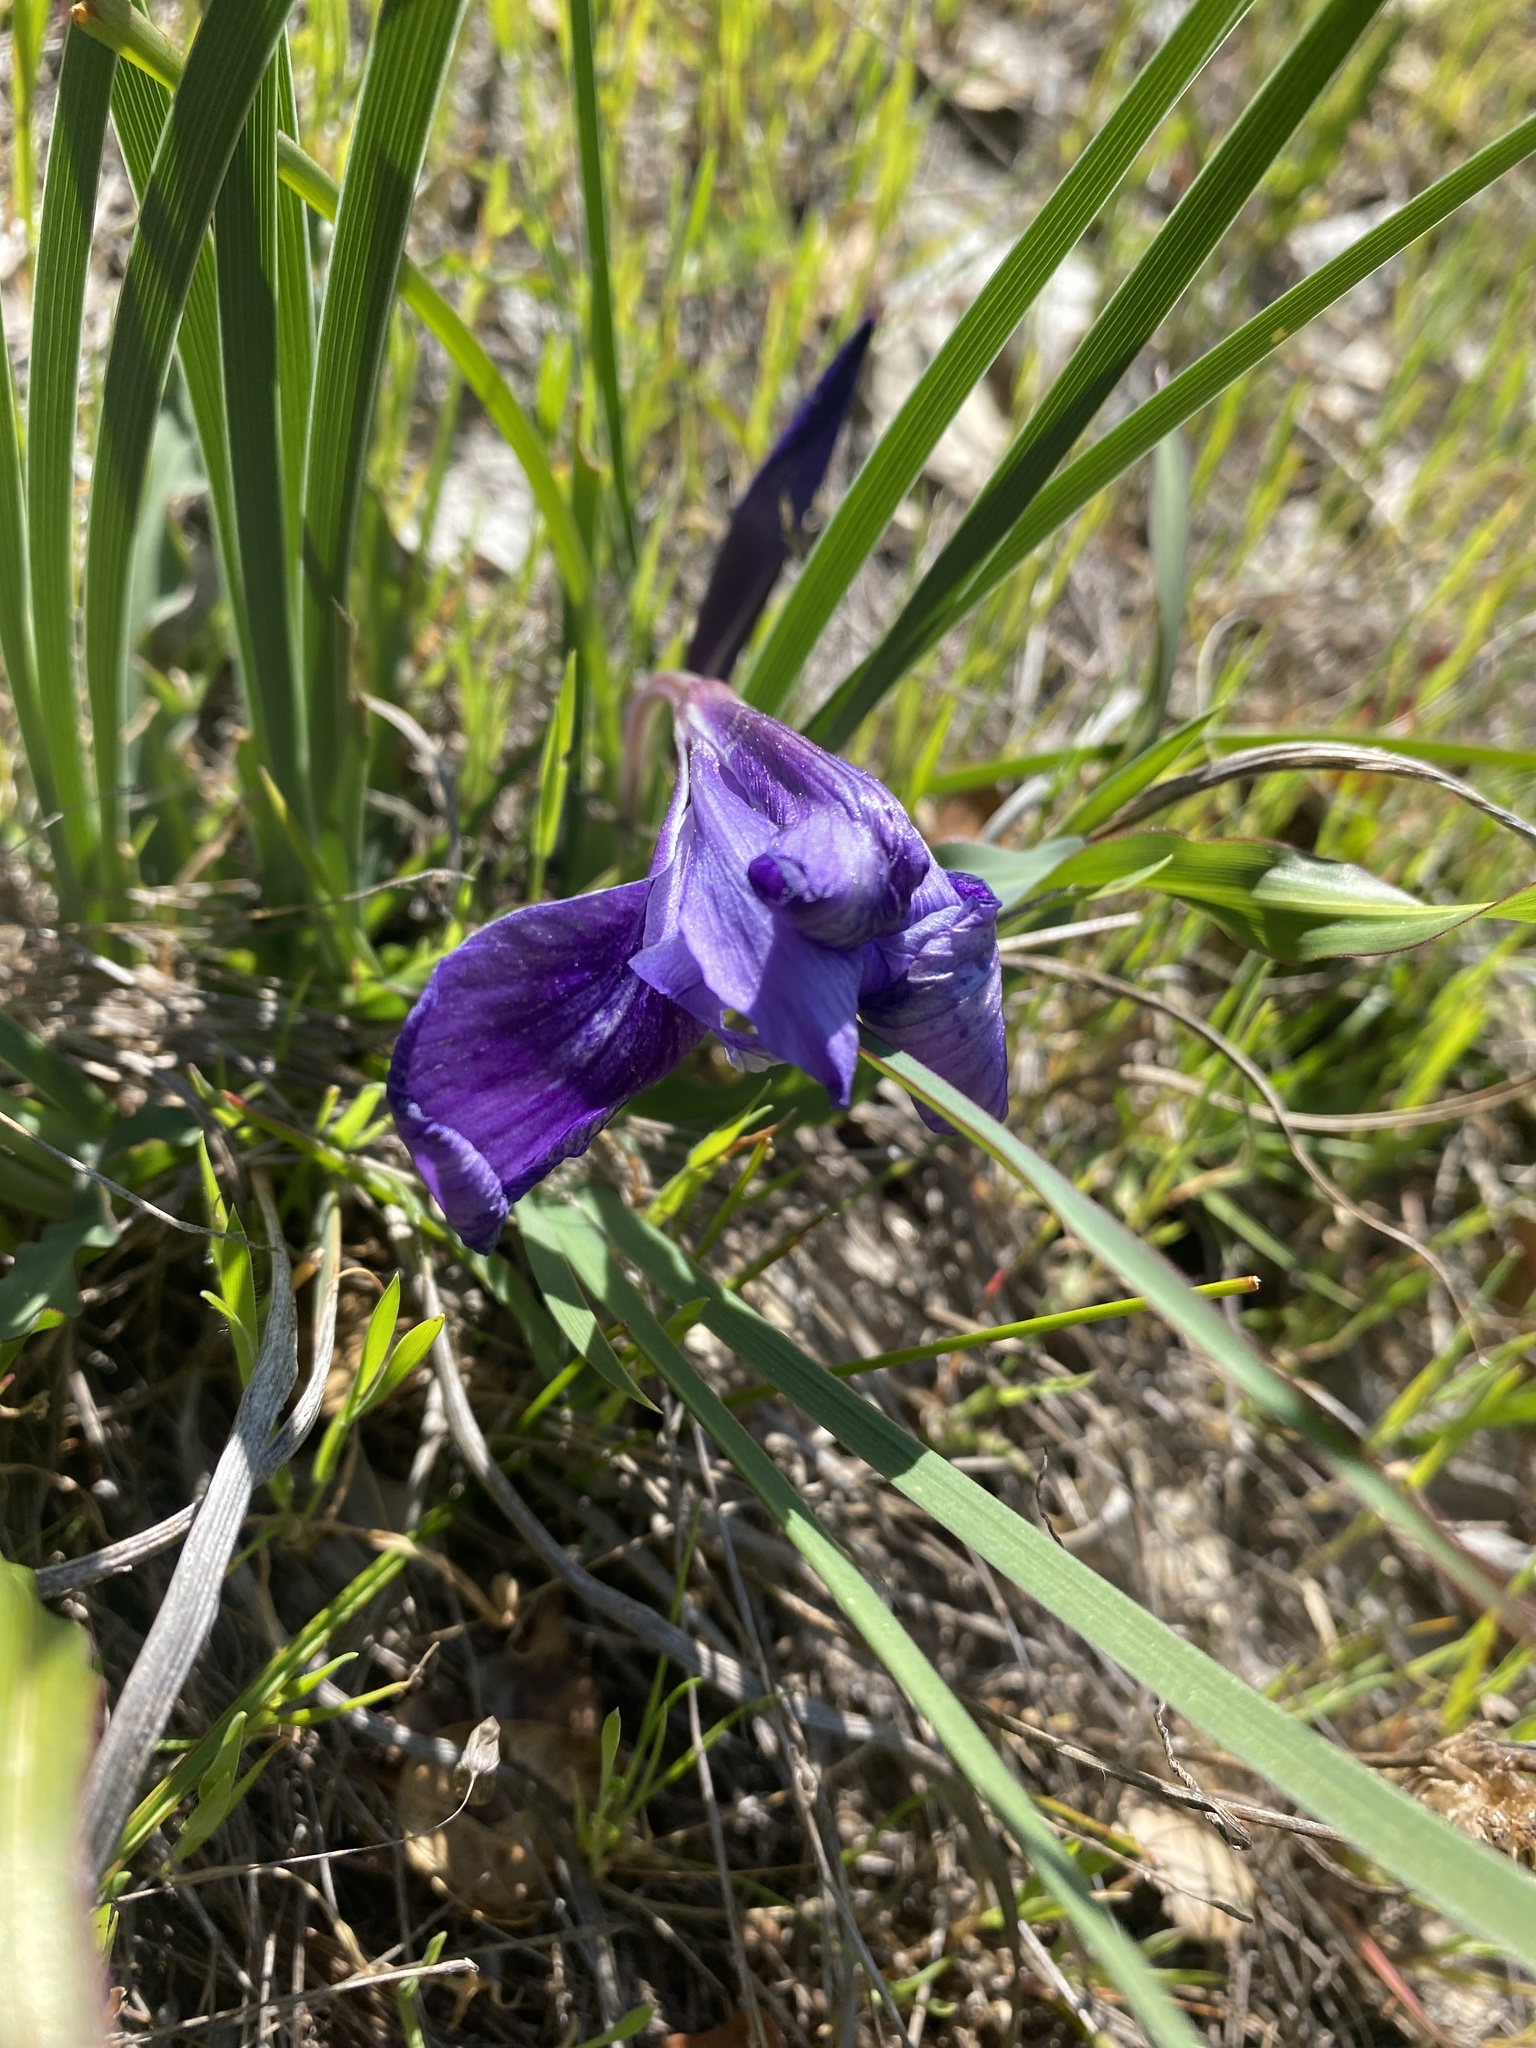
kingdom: Plantae
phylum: Tracheophyta
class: Liliopsida
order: Asparagales
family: Iridaceae
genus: Iris
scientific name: Iris macrosiphon
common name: Ground iris
